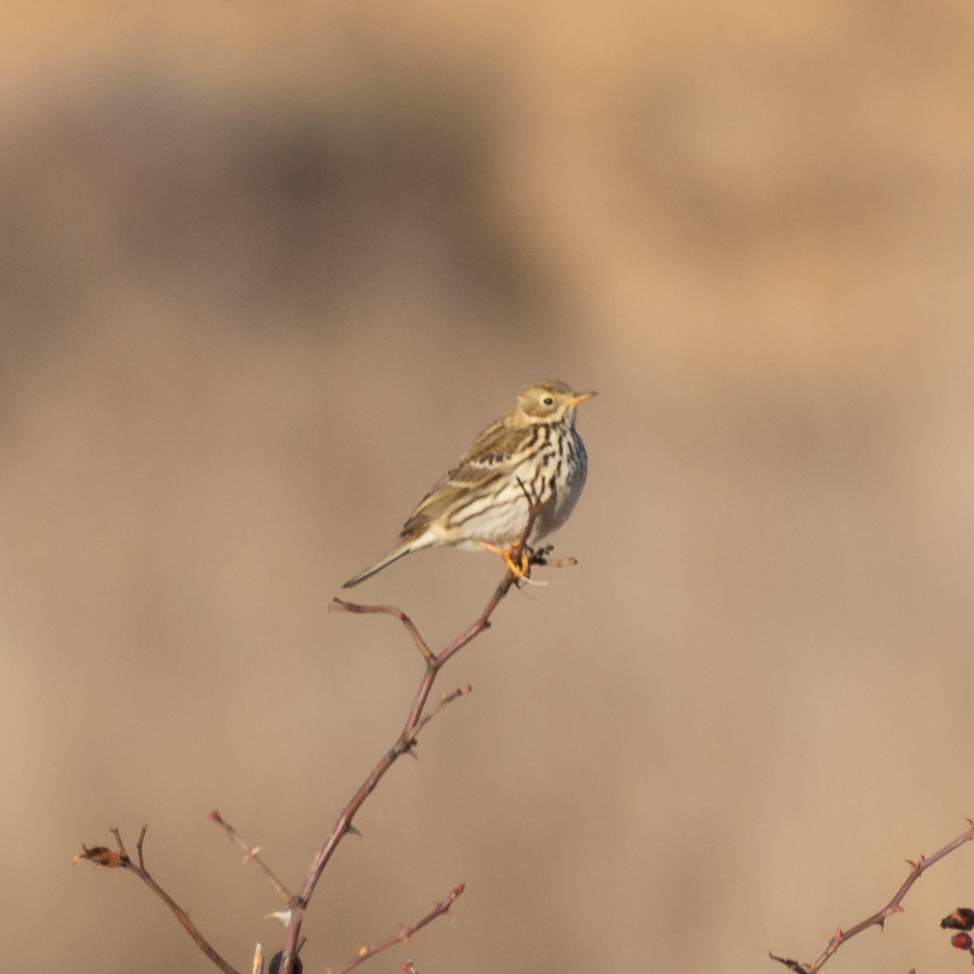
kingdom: Animalia
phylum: Chordata
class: Aves
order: Passeriformes
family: Motacillidae
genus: Anthus
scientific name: Anthus pratensis
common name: Meadow pipit
